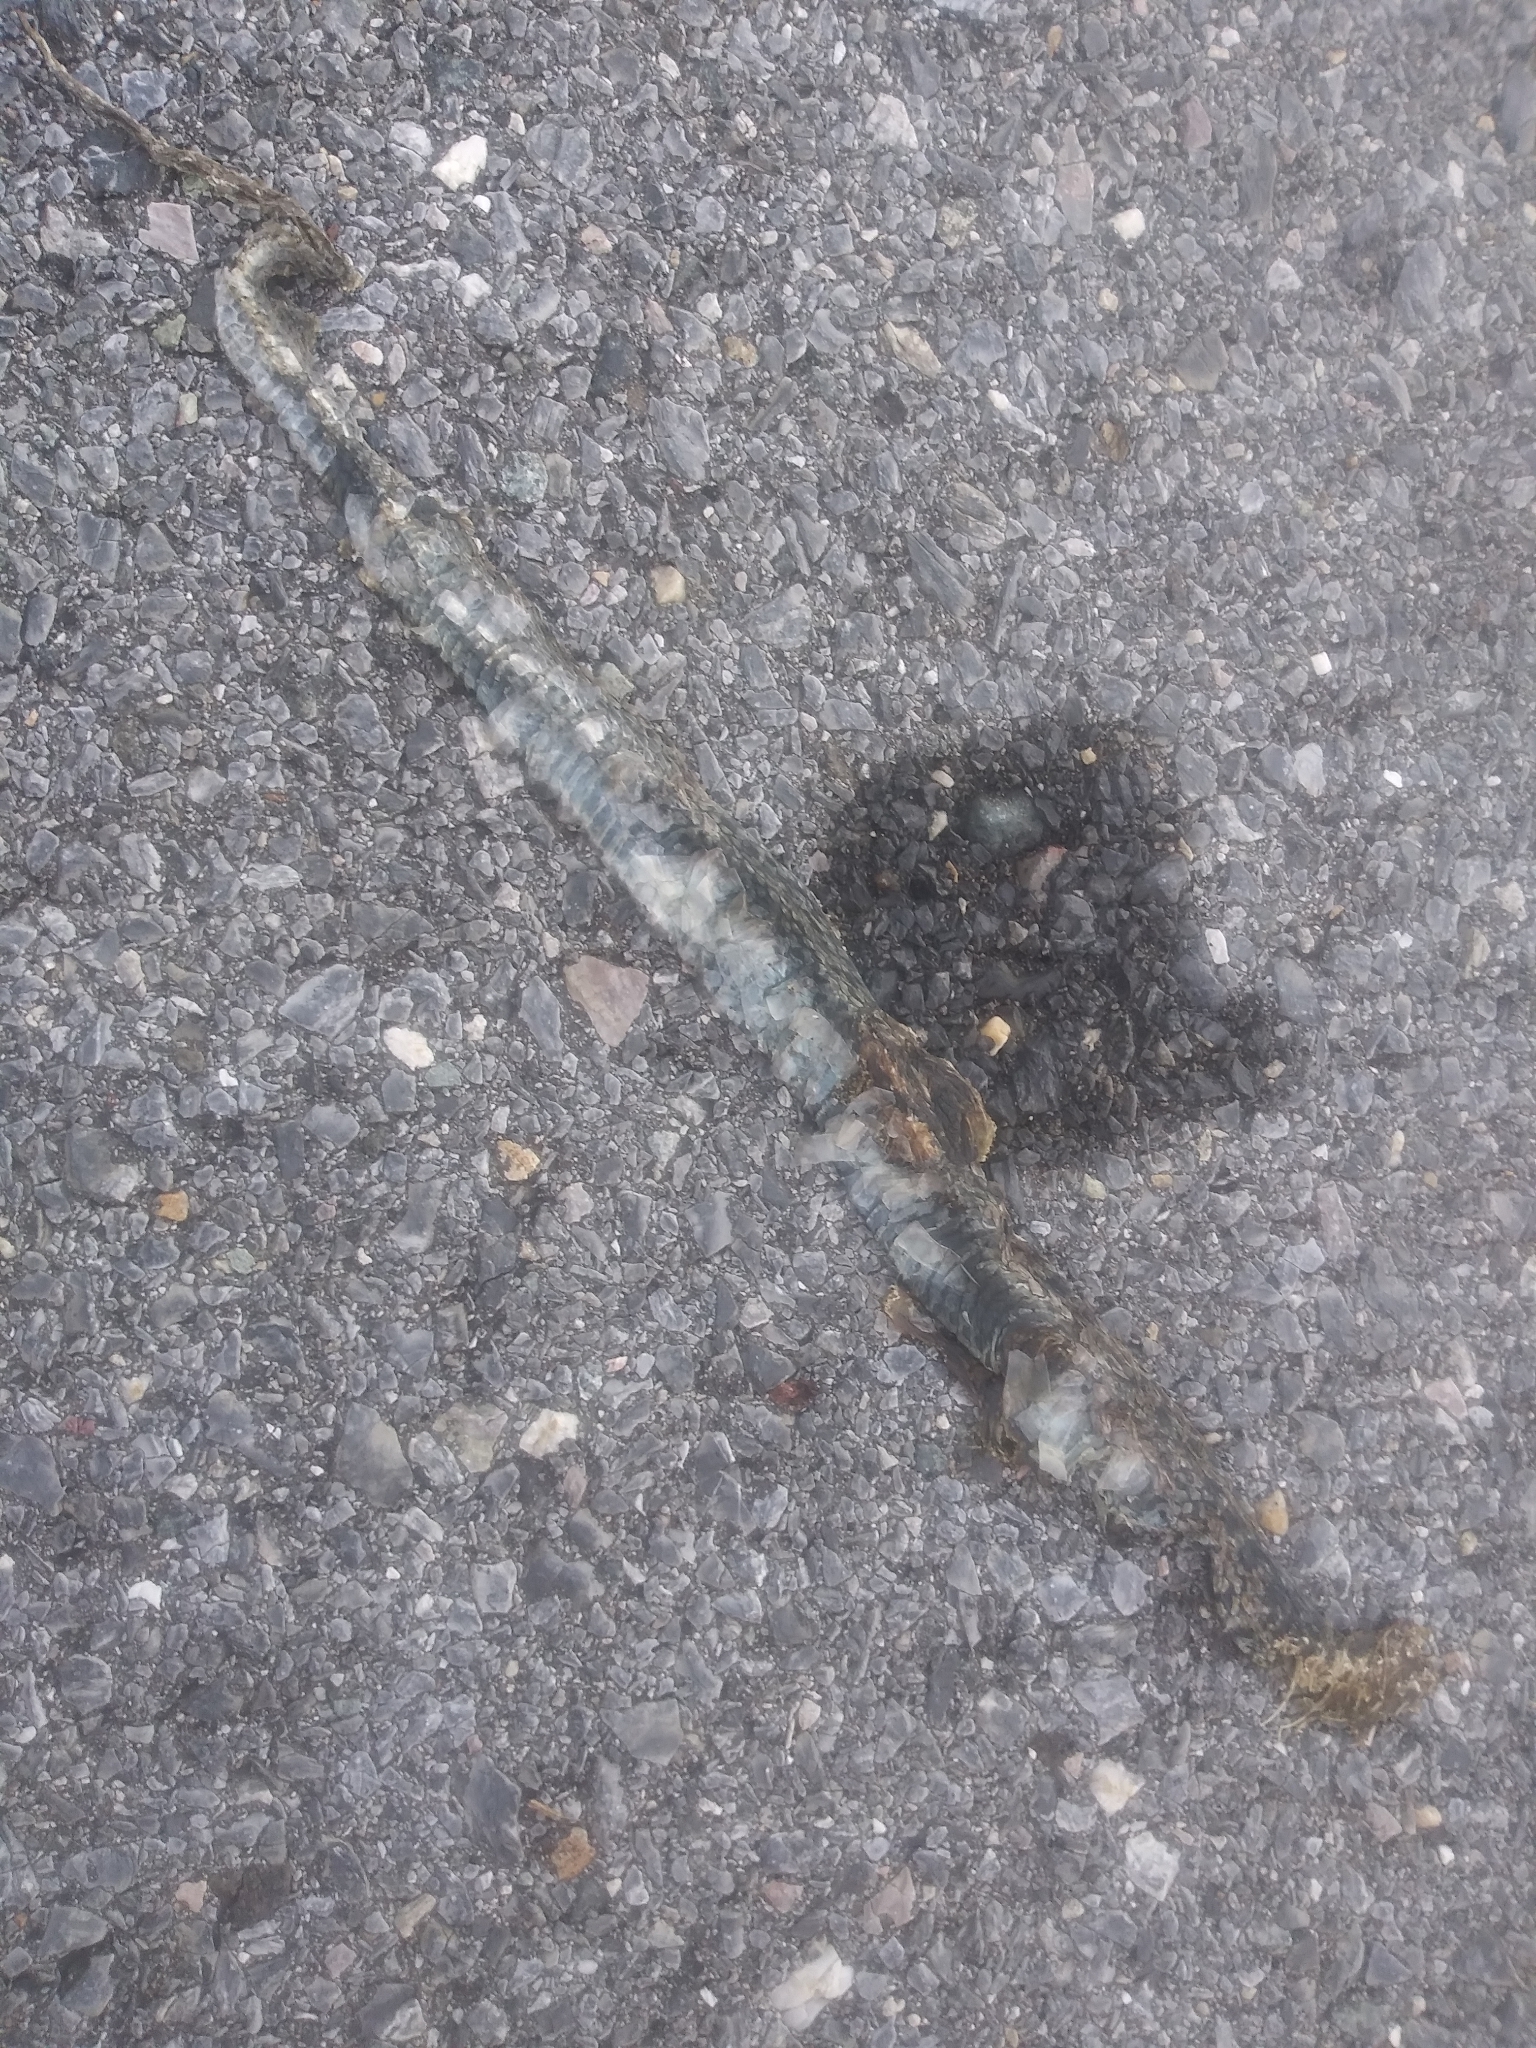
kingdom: Animalia
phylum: Chordata
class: Squamata
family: Colubridae
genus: Thamnophis
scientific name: Thamnophis sirtalis
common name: Common garter snake
